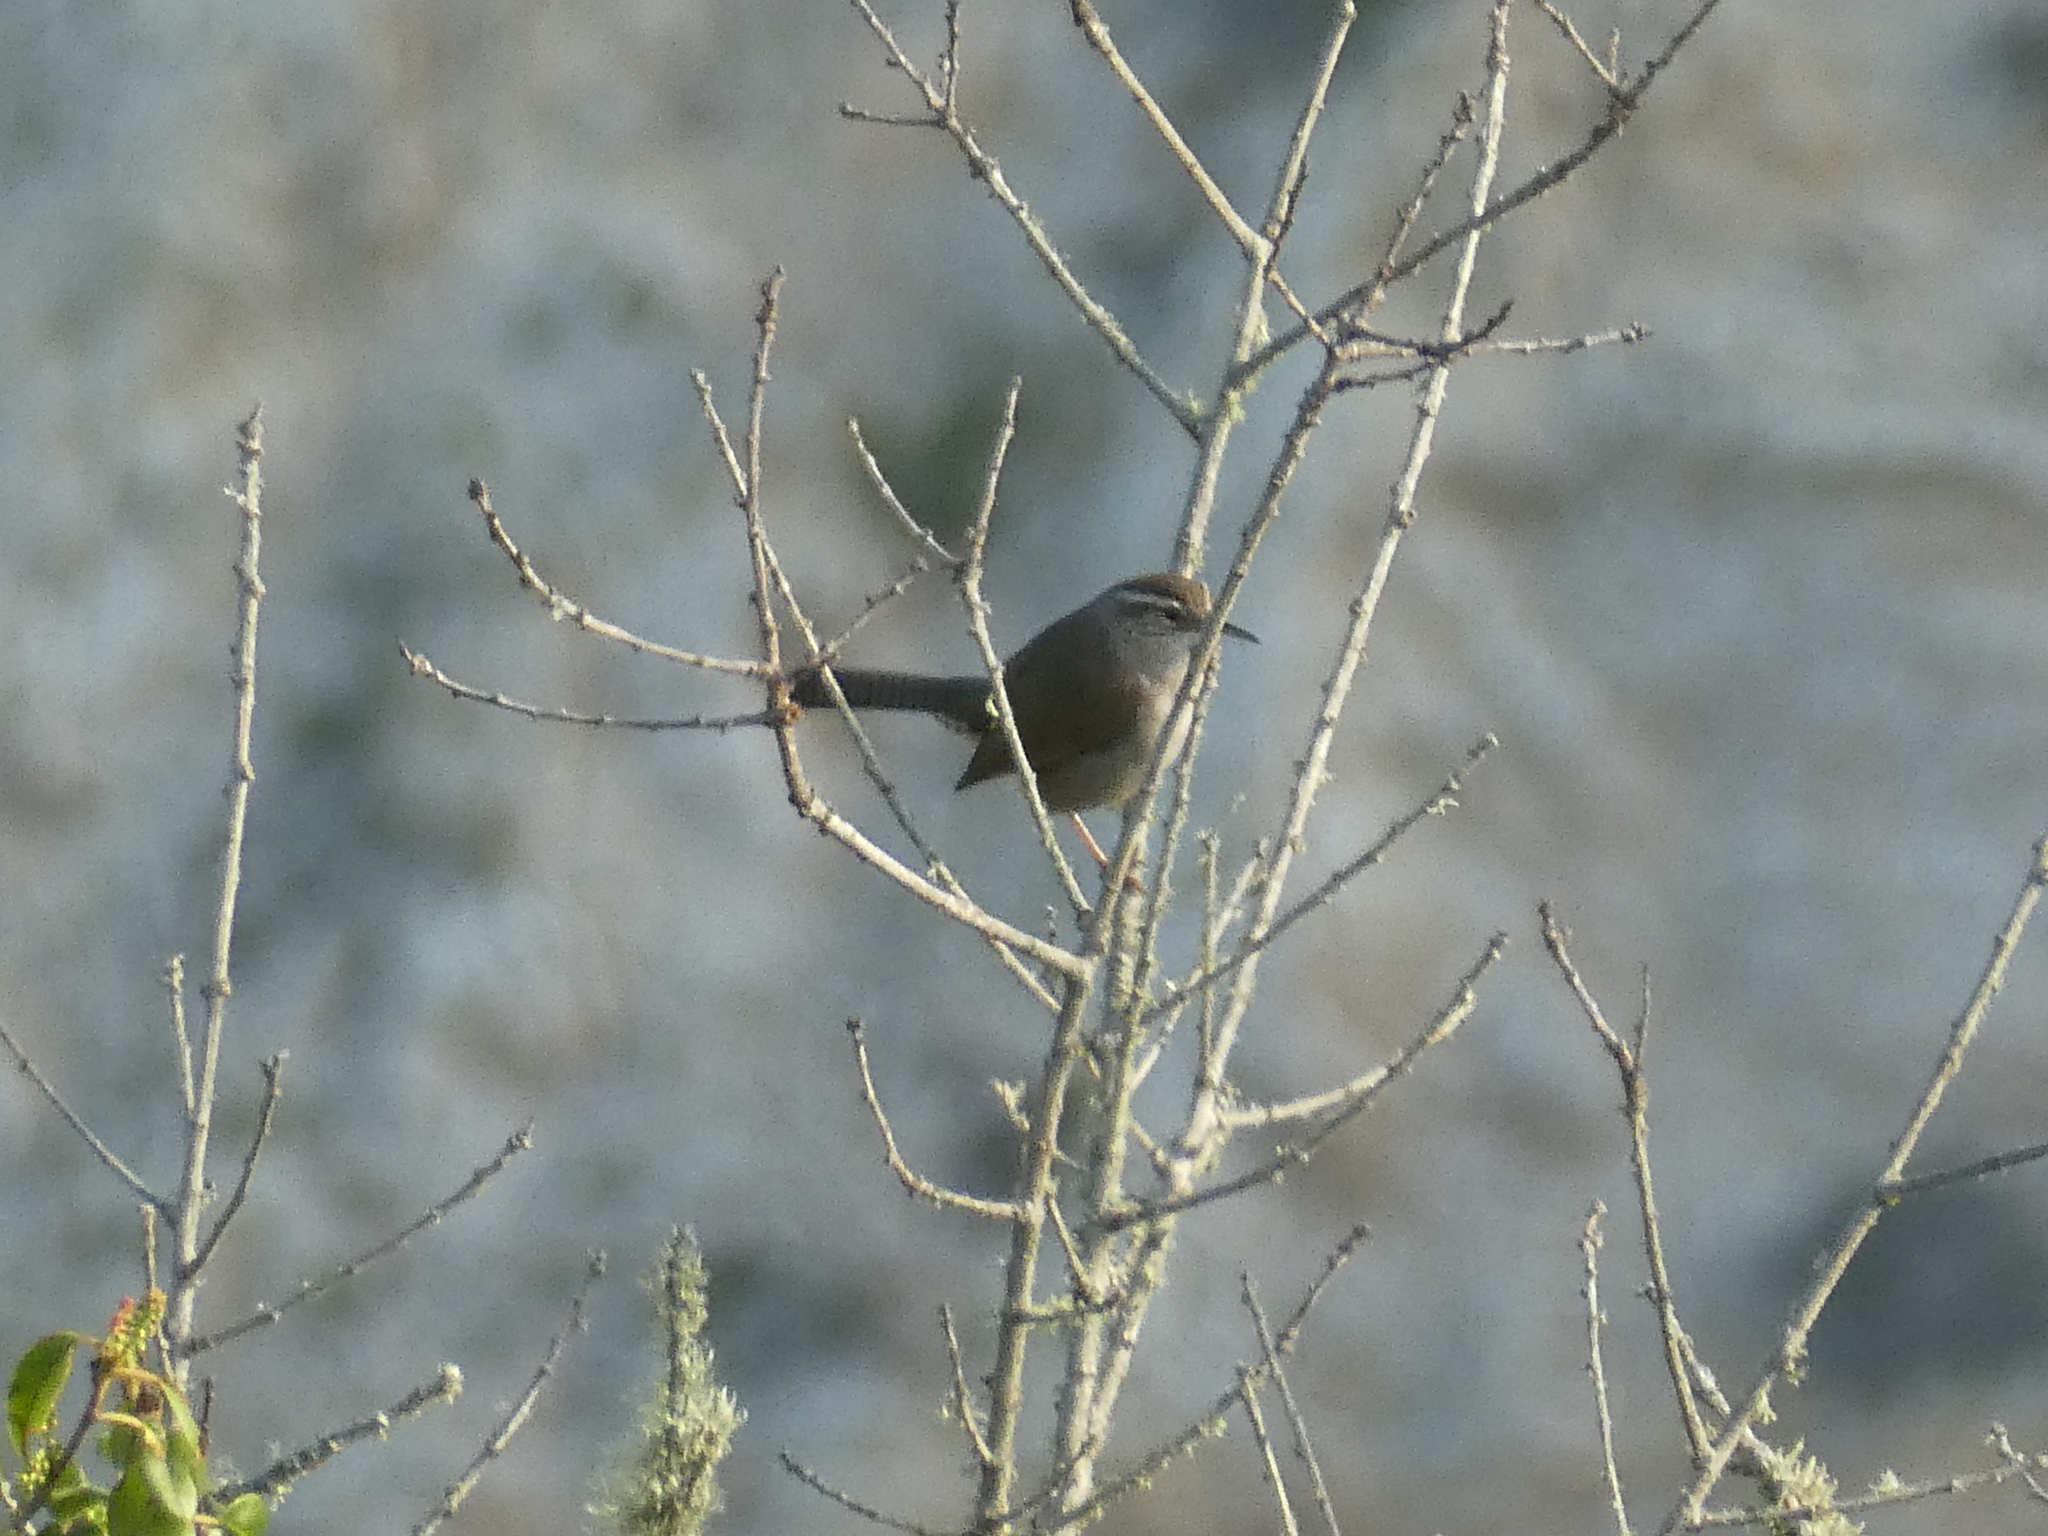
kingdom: Animalia
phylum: Chordata
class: Aves
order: Passeriformes
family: Troglodytidae
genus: Thryomanes
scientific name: Thryomanes bewickii
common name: Bewick's wren
